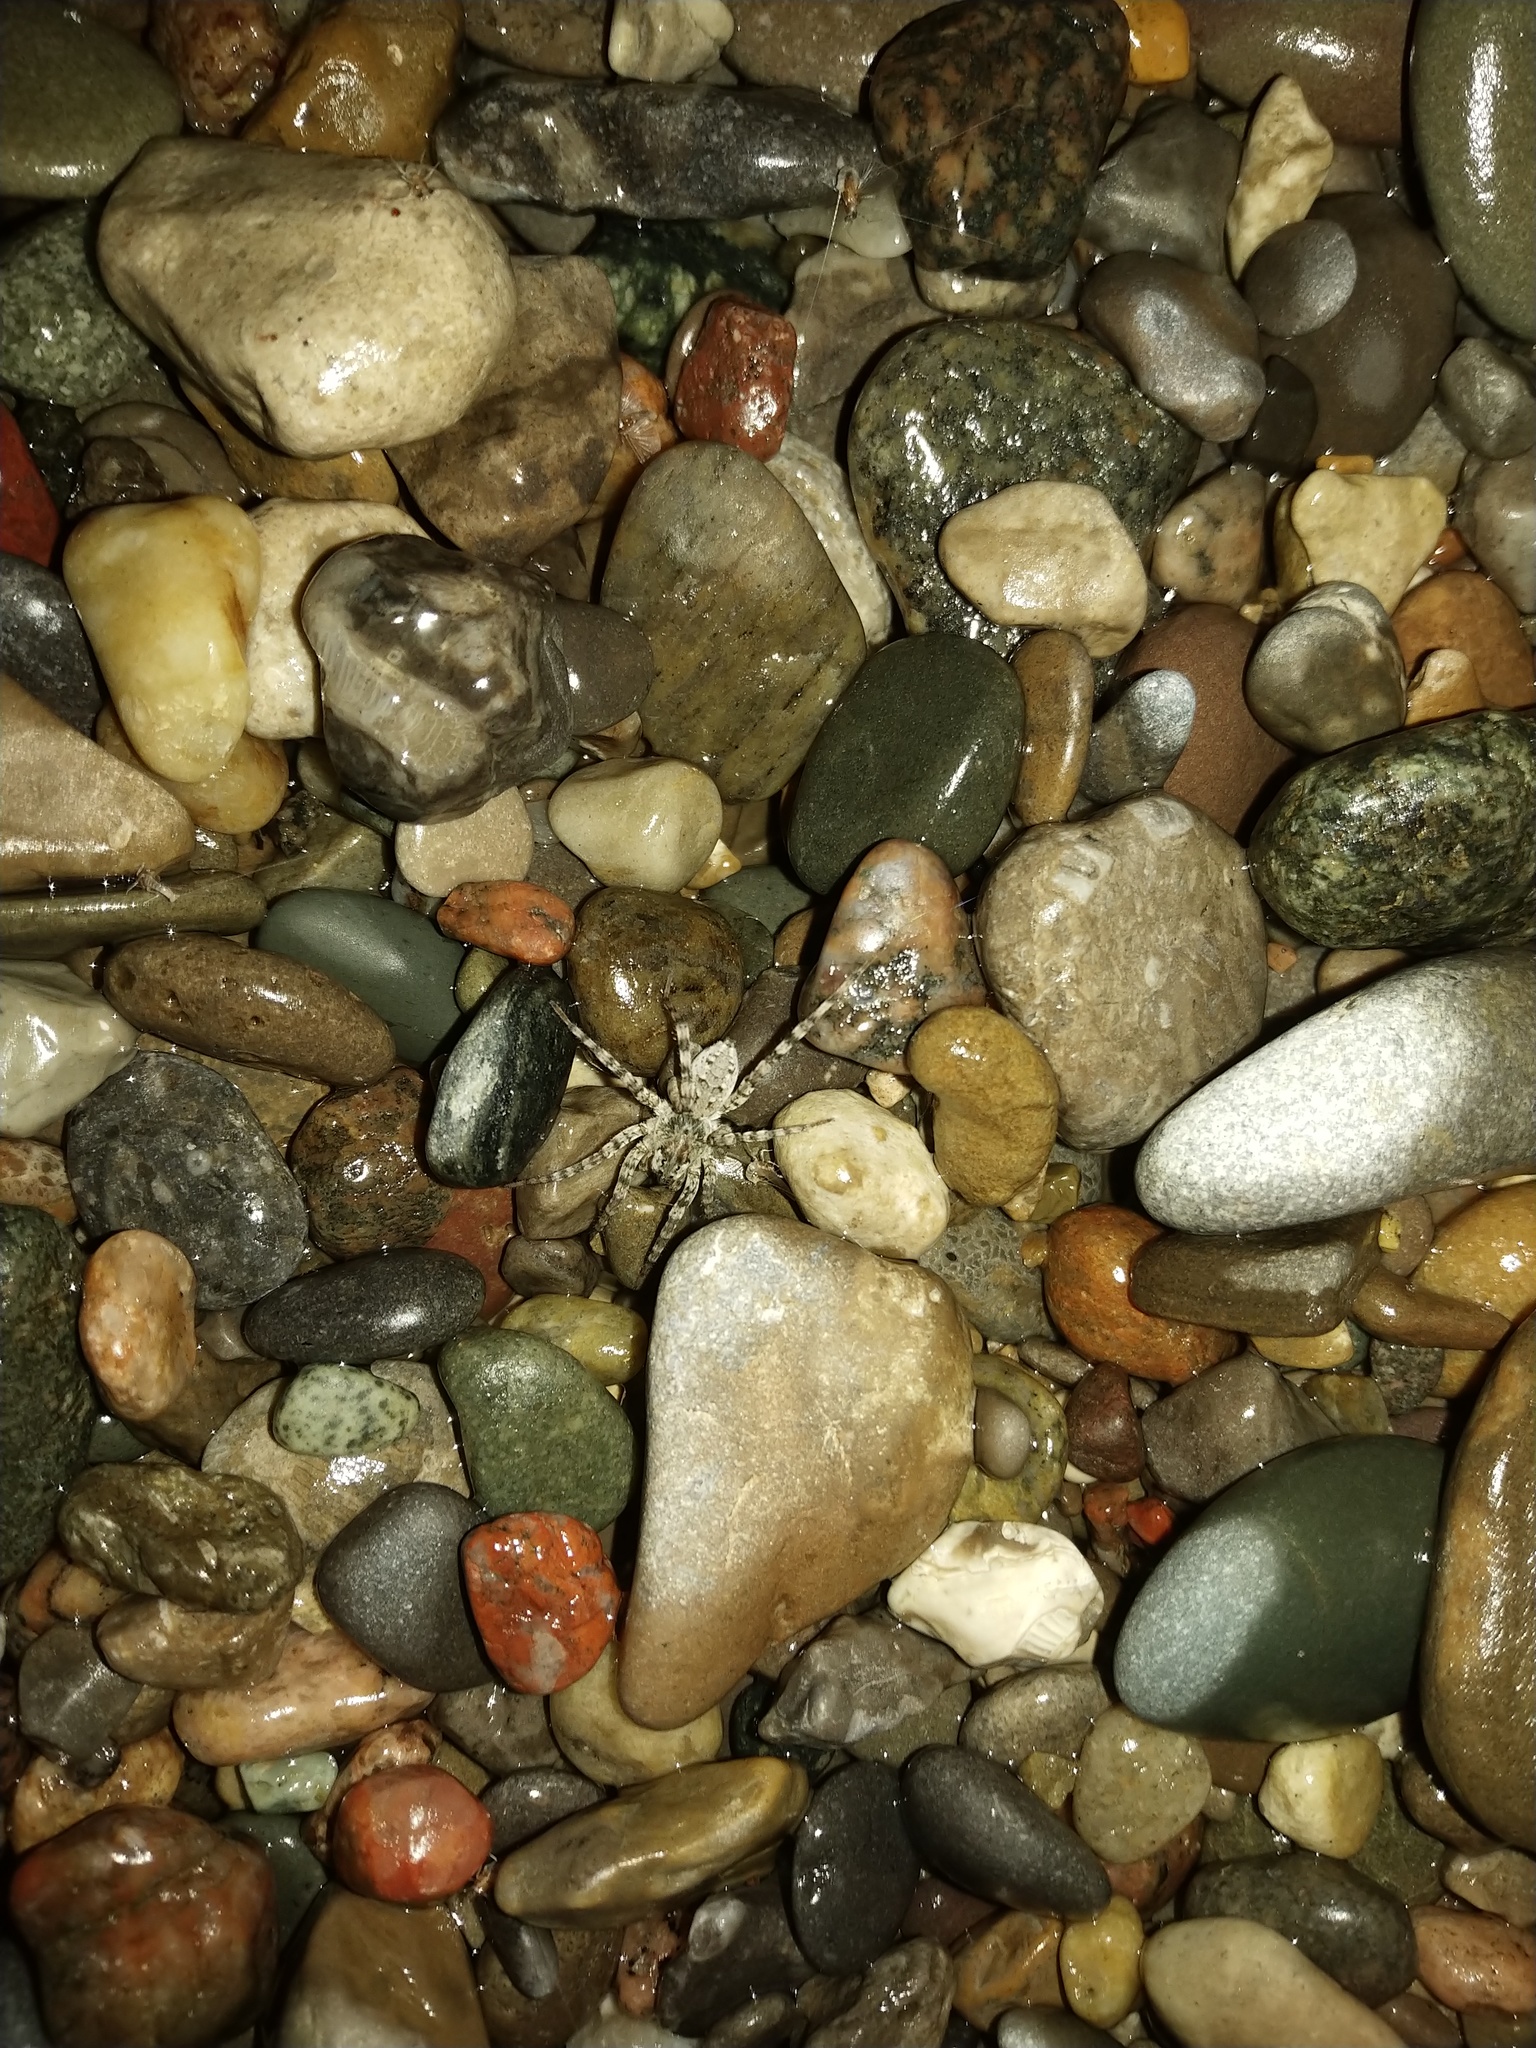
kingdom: Animalia
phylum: Arthropoda
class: Arachnida
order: Araneae
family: Lycosidae
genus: Arctosa
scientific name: Arctosa littoralis
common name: Wolf spiders
